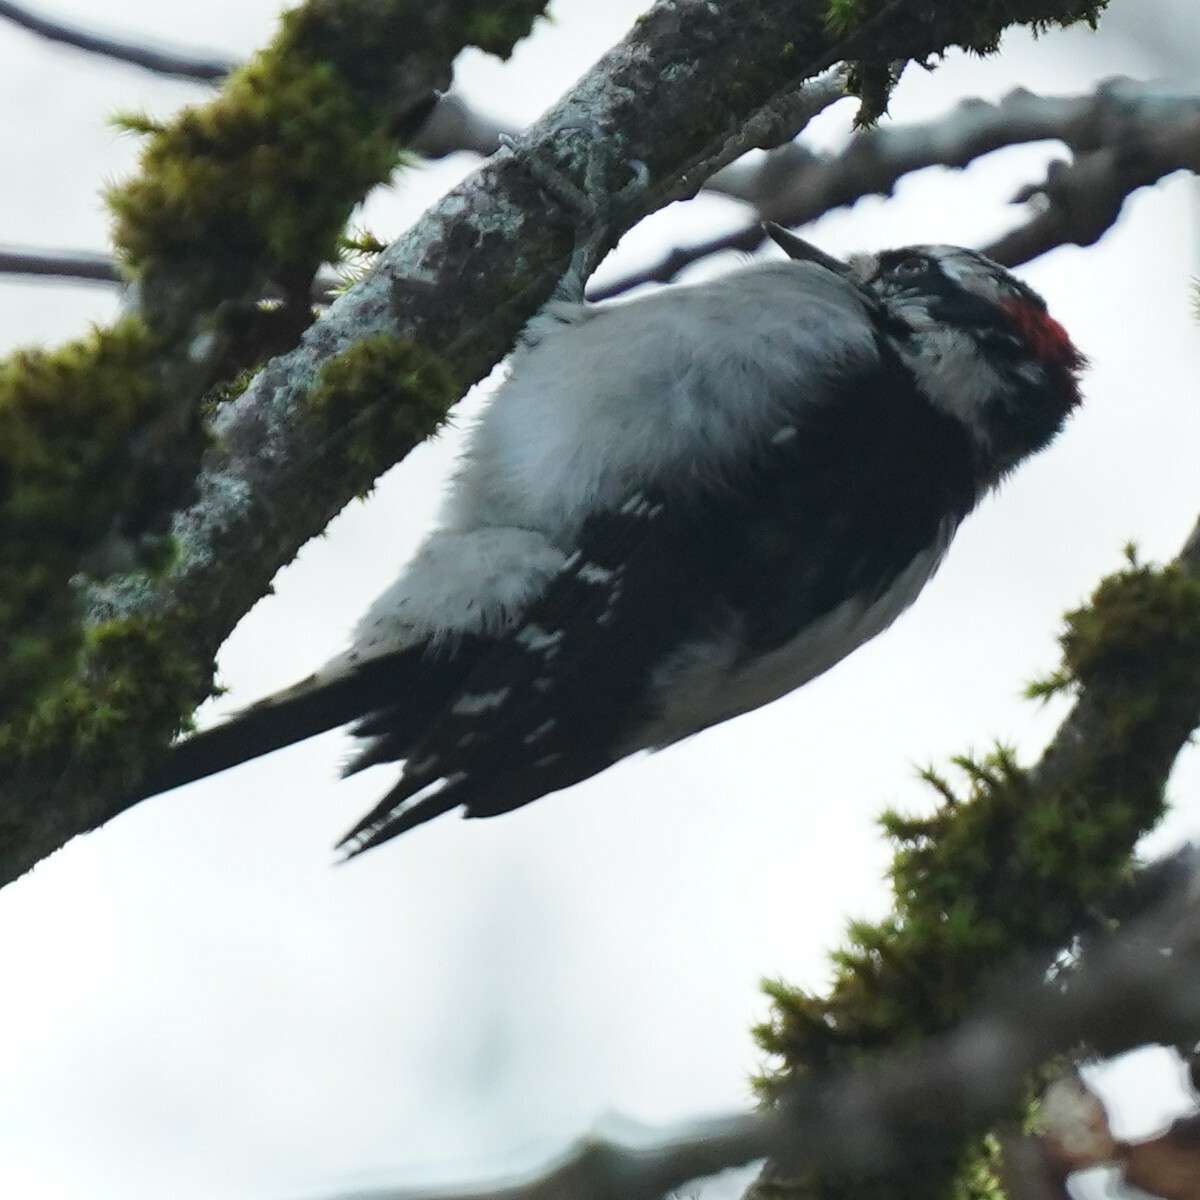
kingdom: Animalia
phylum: Chordata
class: Aves
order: Piciformes
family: Picidae
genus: Dryobates
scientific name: Dryobates pubescens
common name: Downy woodpecker
